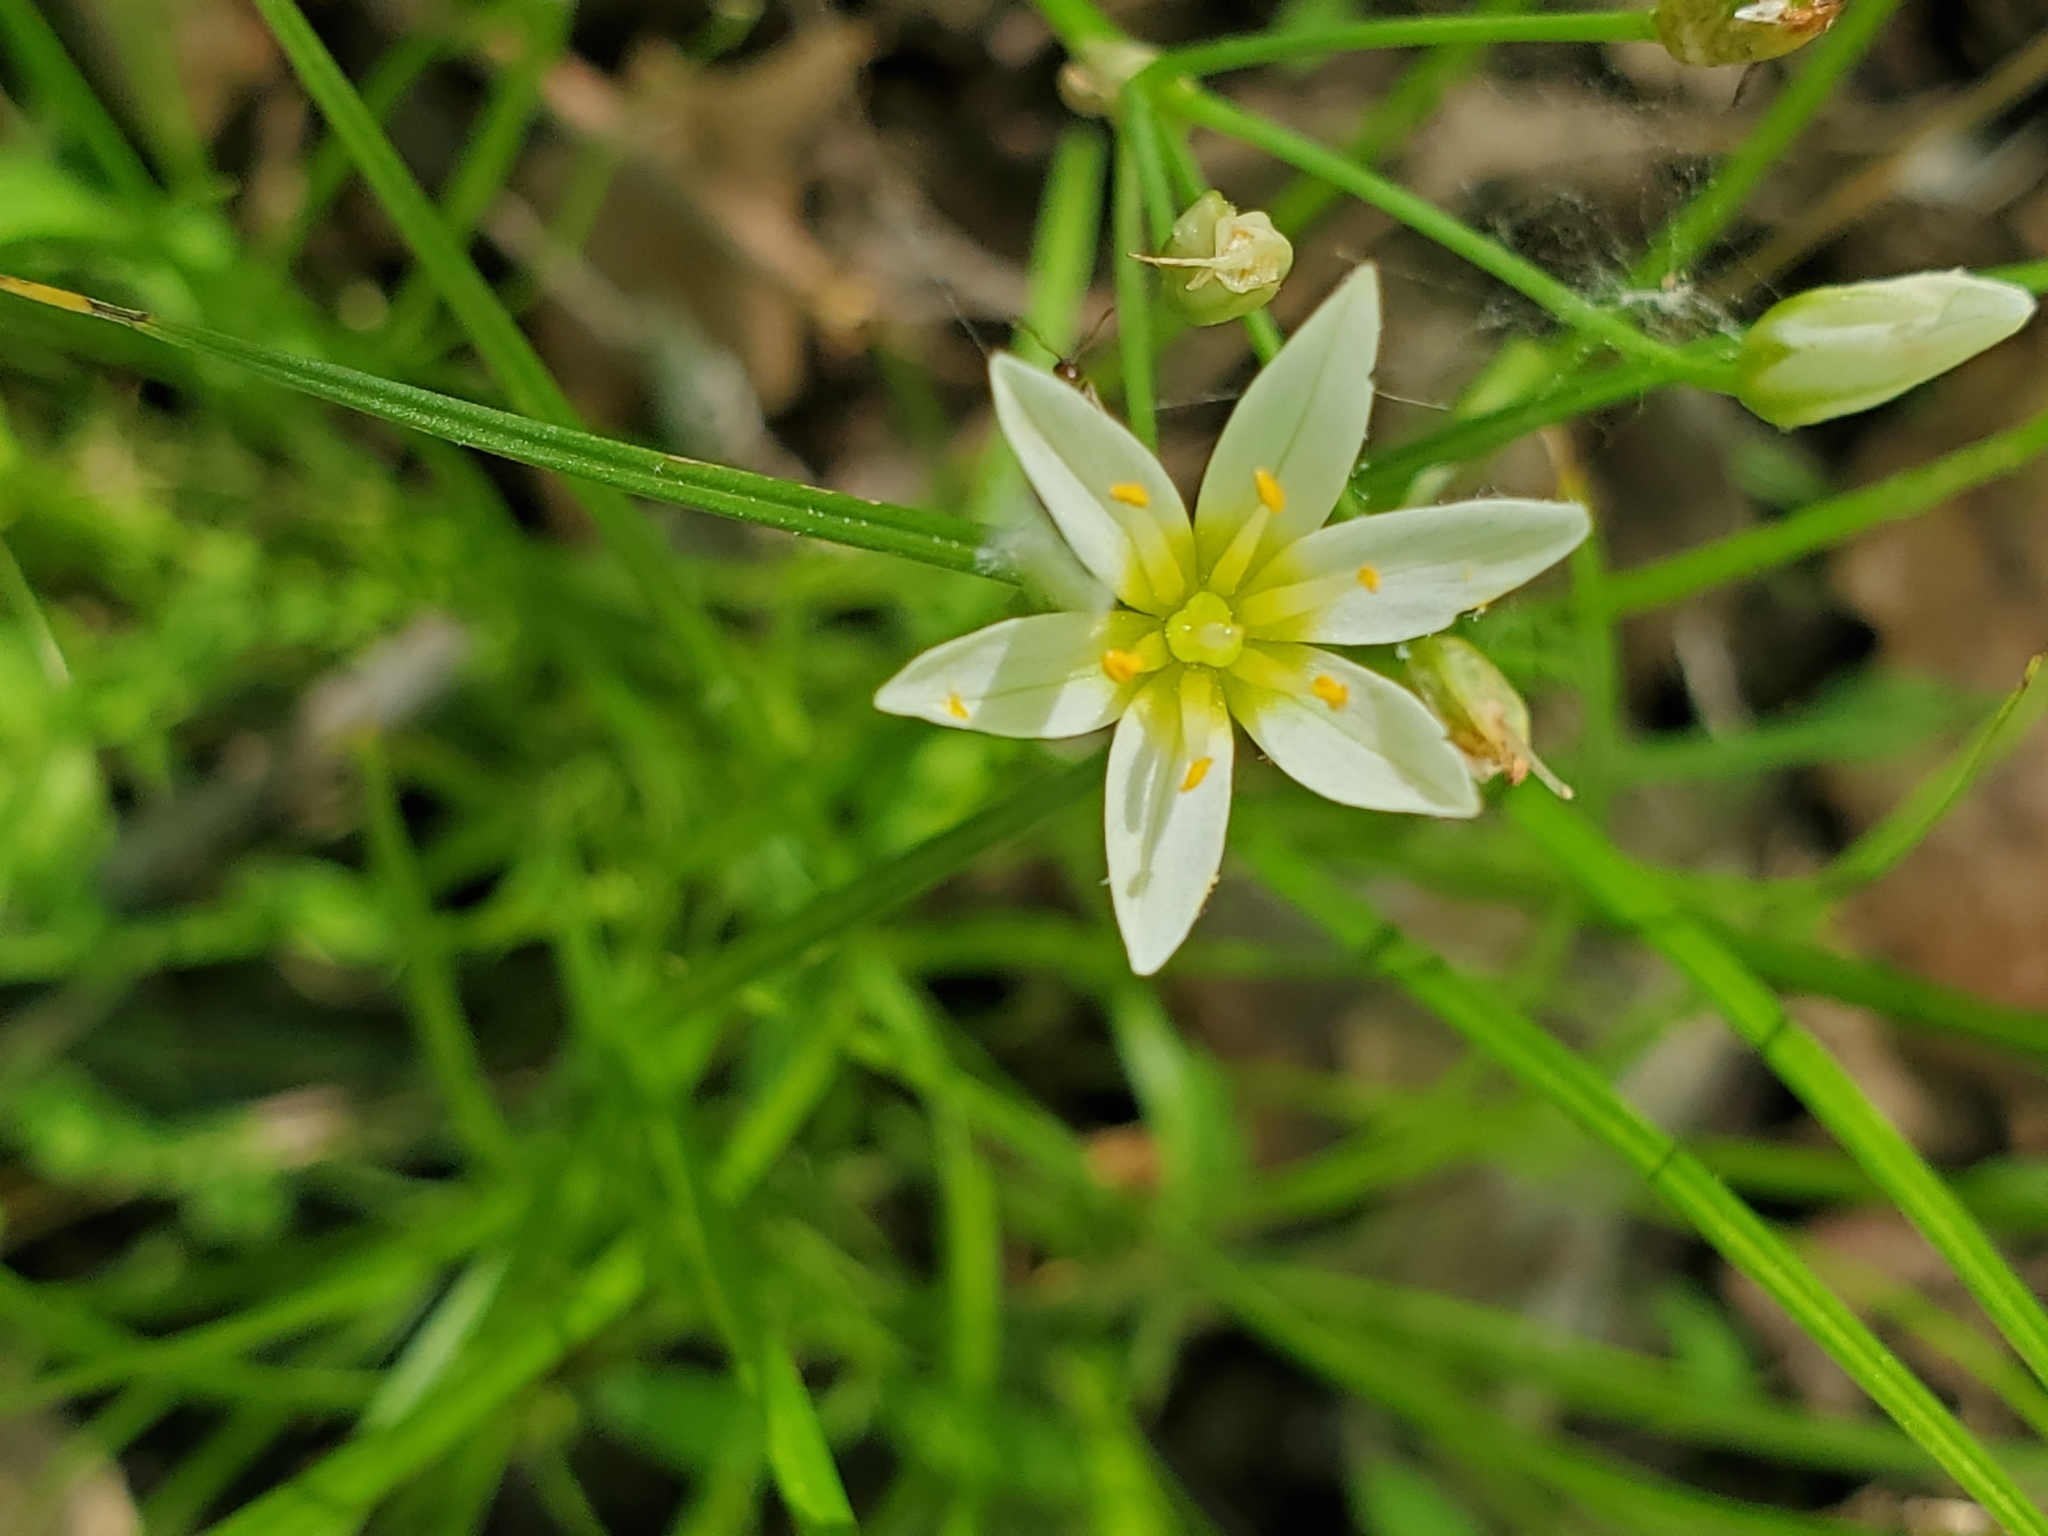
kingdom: Plantae
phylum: Tracheophyta
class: Liliopsida
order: Asparagales
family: Amaryllidaceae
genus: Nothoscordum
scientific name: Nothoscordum bivalve
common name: Crow-poison
